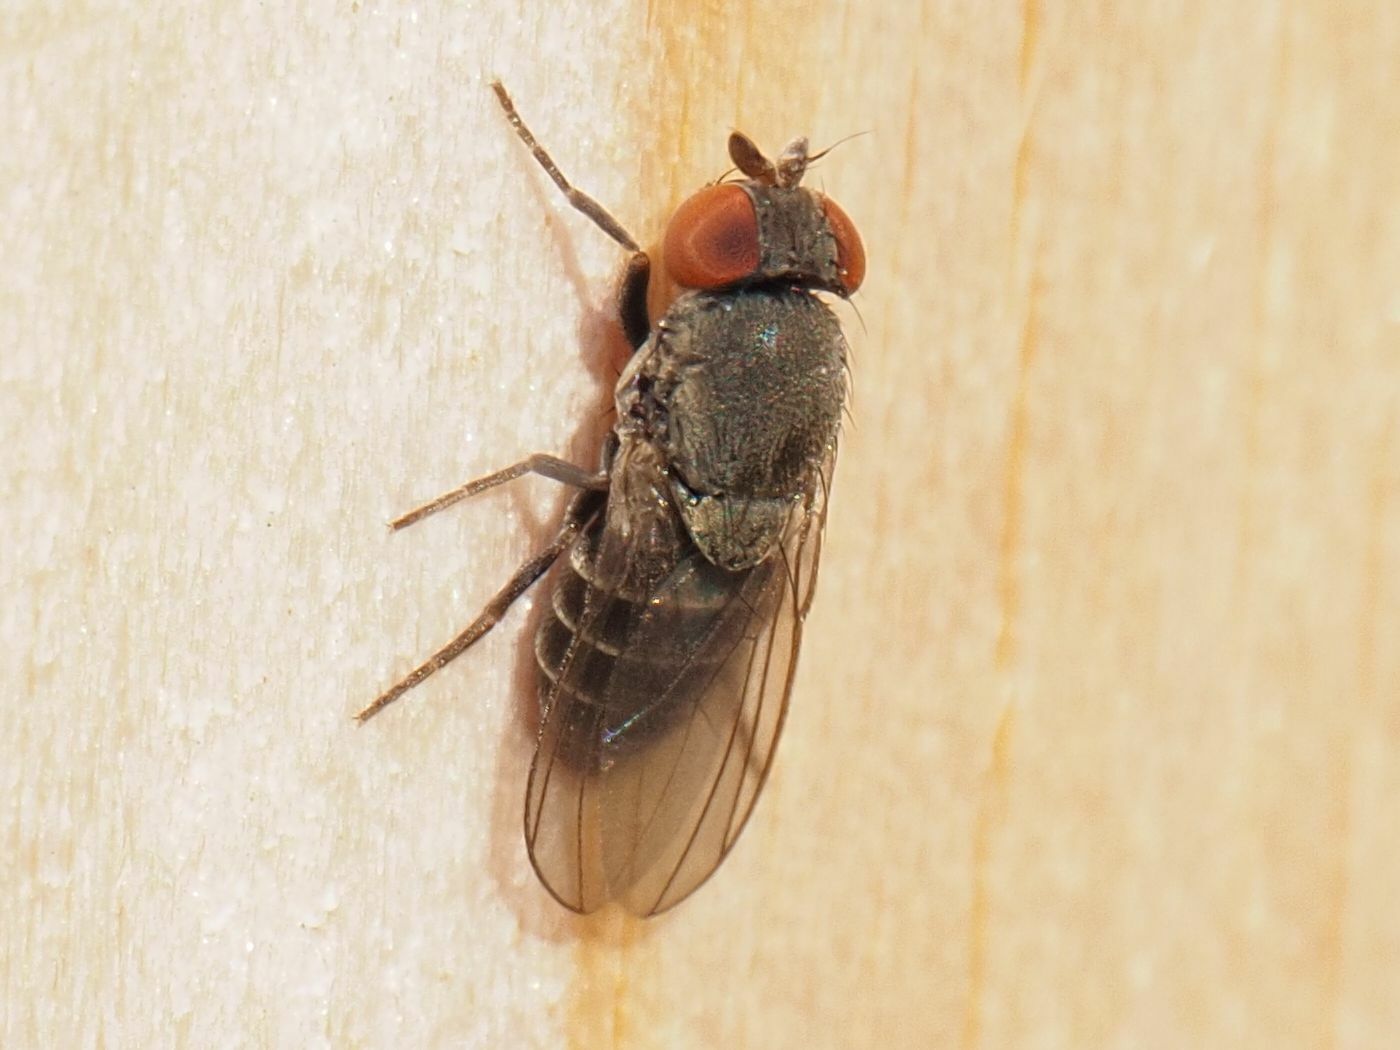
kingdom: Animalia
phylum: Arthropoda
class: Insecta
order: Diptera
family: Drosophilidae
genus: Cacoxenus
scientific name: Cacoxenus indagator
